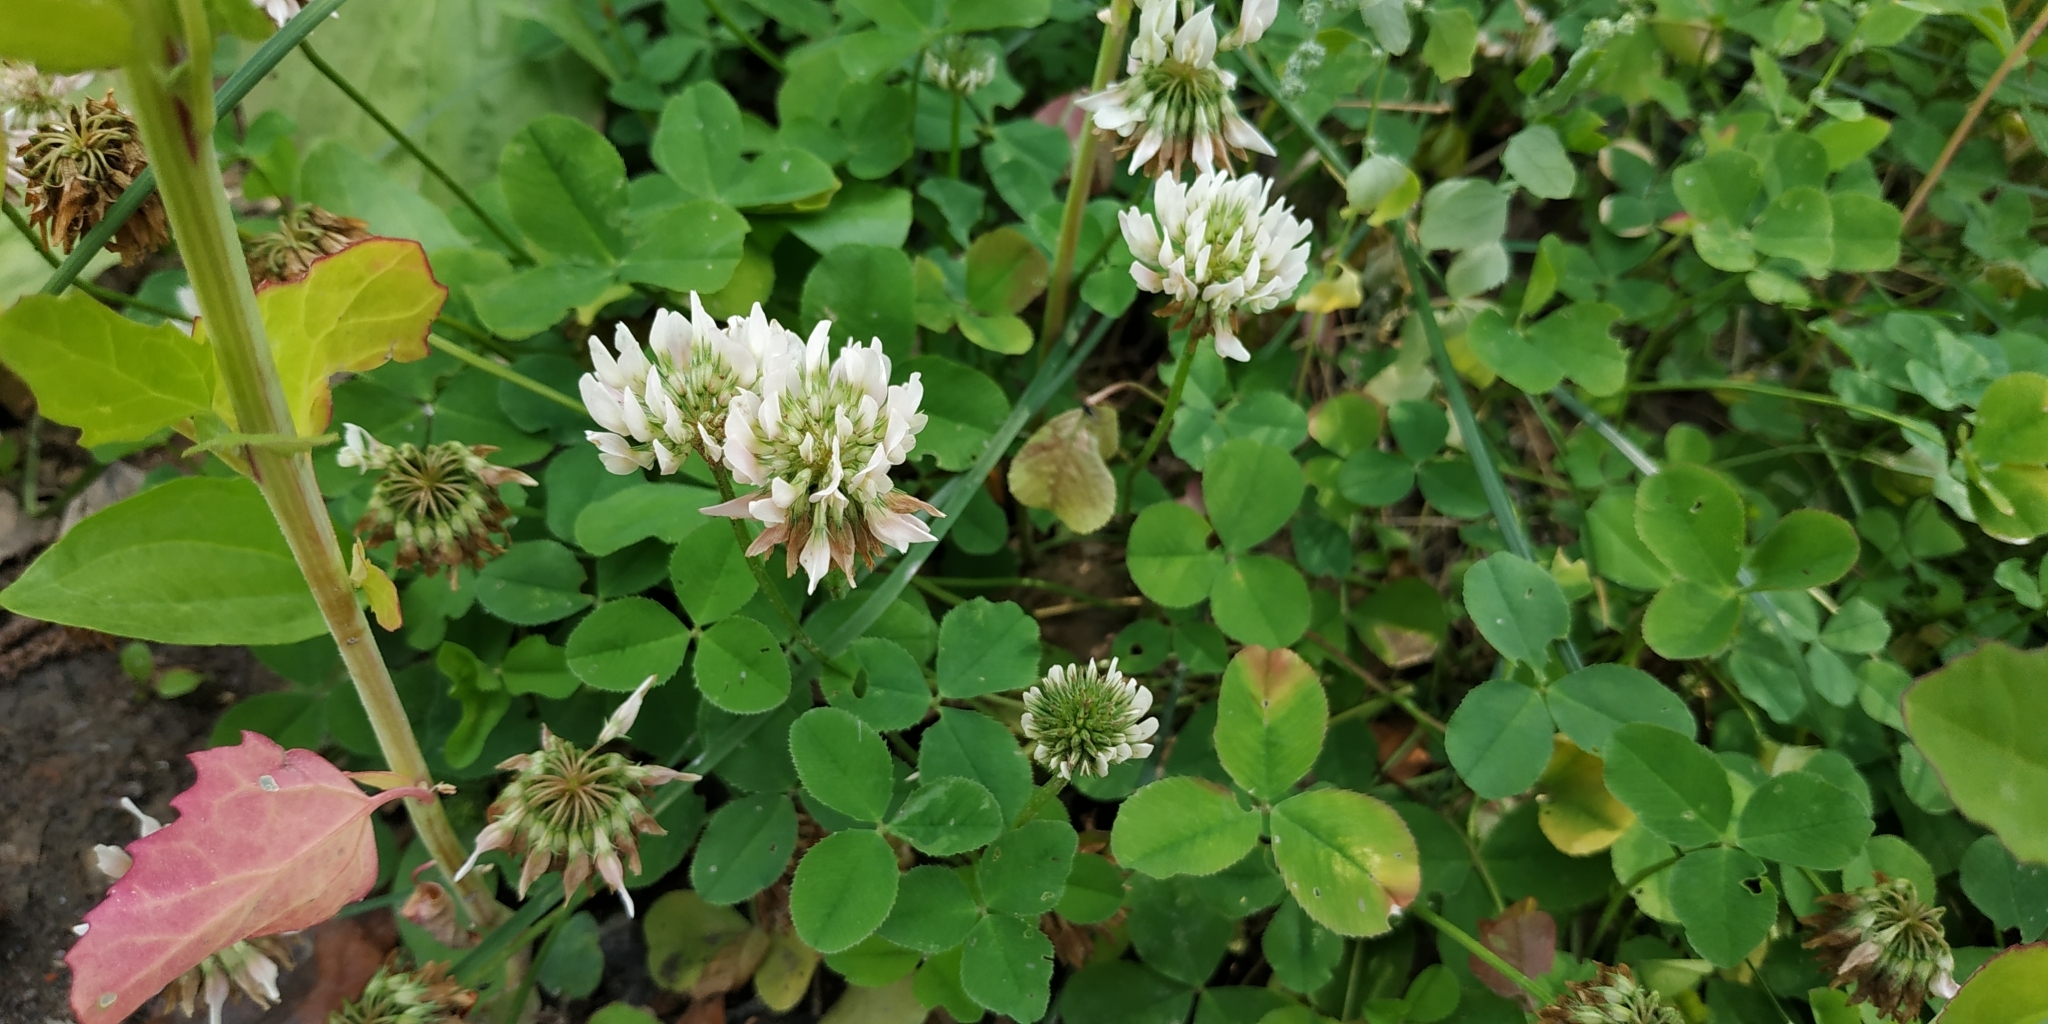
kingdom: Plantae
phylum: Tracheophyta
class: Magnoliopsida
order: Fabales
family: Fabaceae
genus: Trifolium
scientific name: Trifolium repens
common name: White clover
